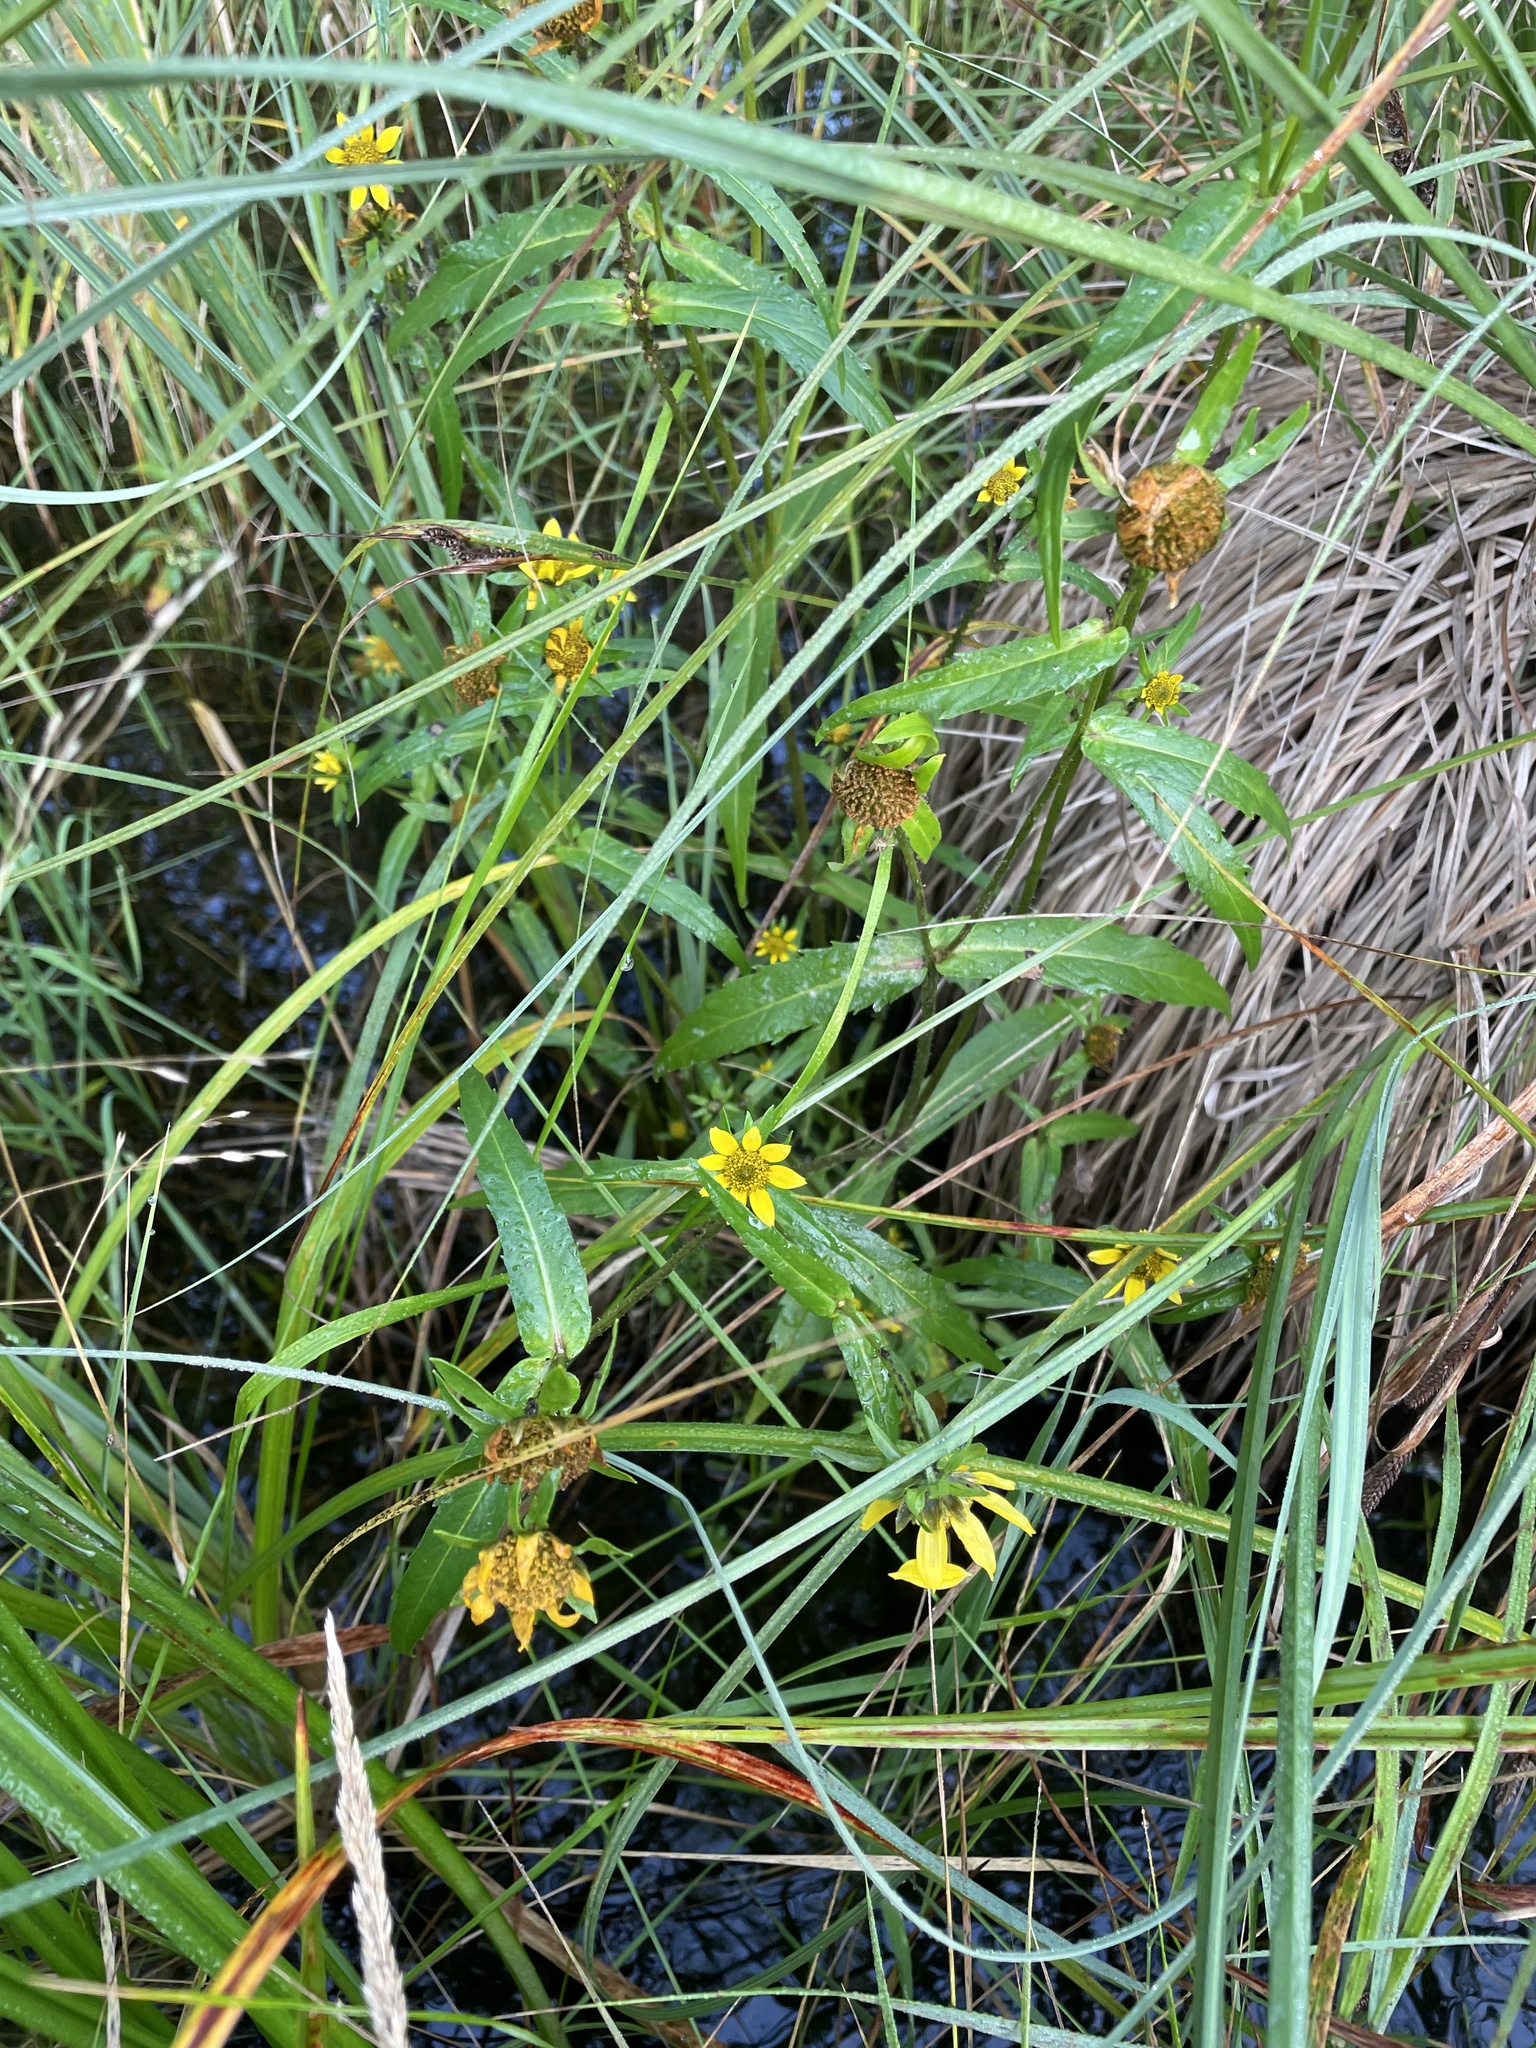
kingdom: Plantae
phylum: Tracheophyta
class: Magnoliopsida
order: Asterales
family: Asteraceae
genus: Bidens
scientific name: Bidens cernua
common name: Nodding bur-marigold
